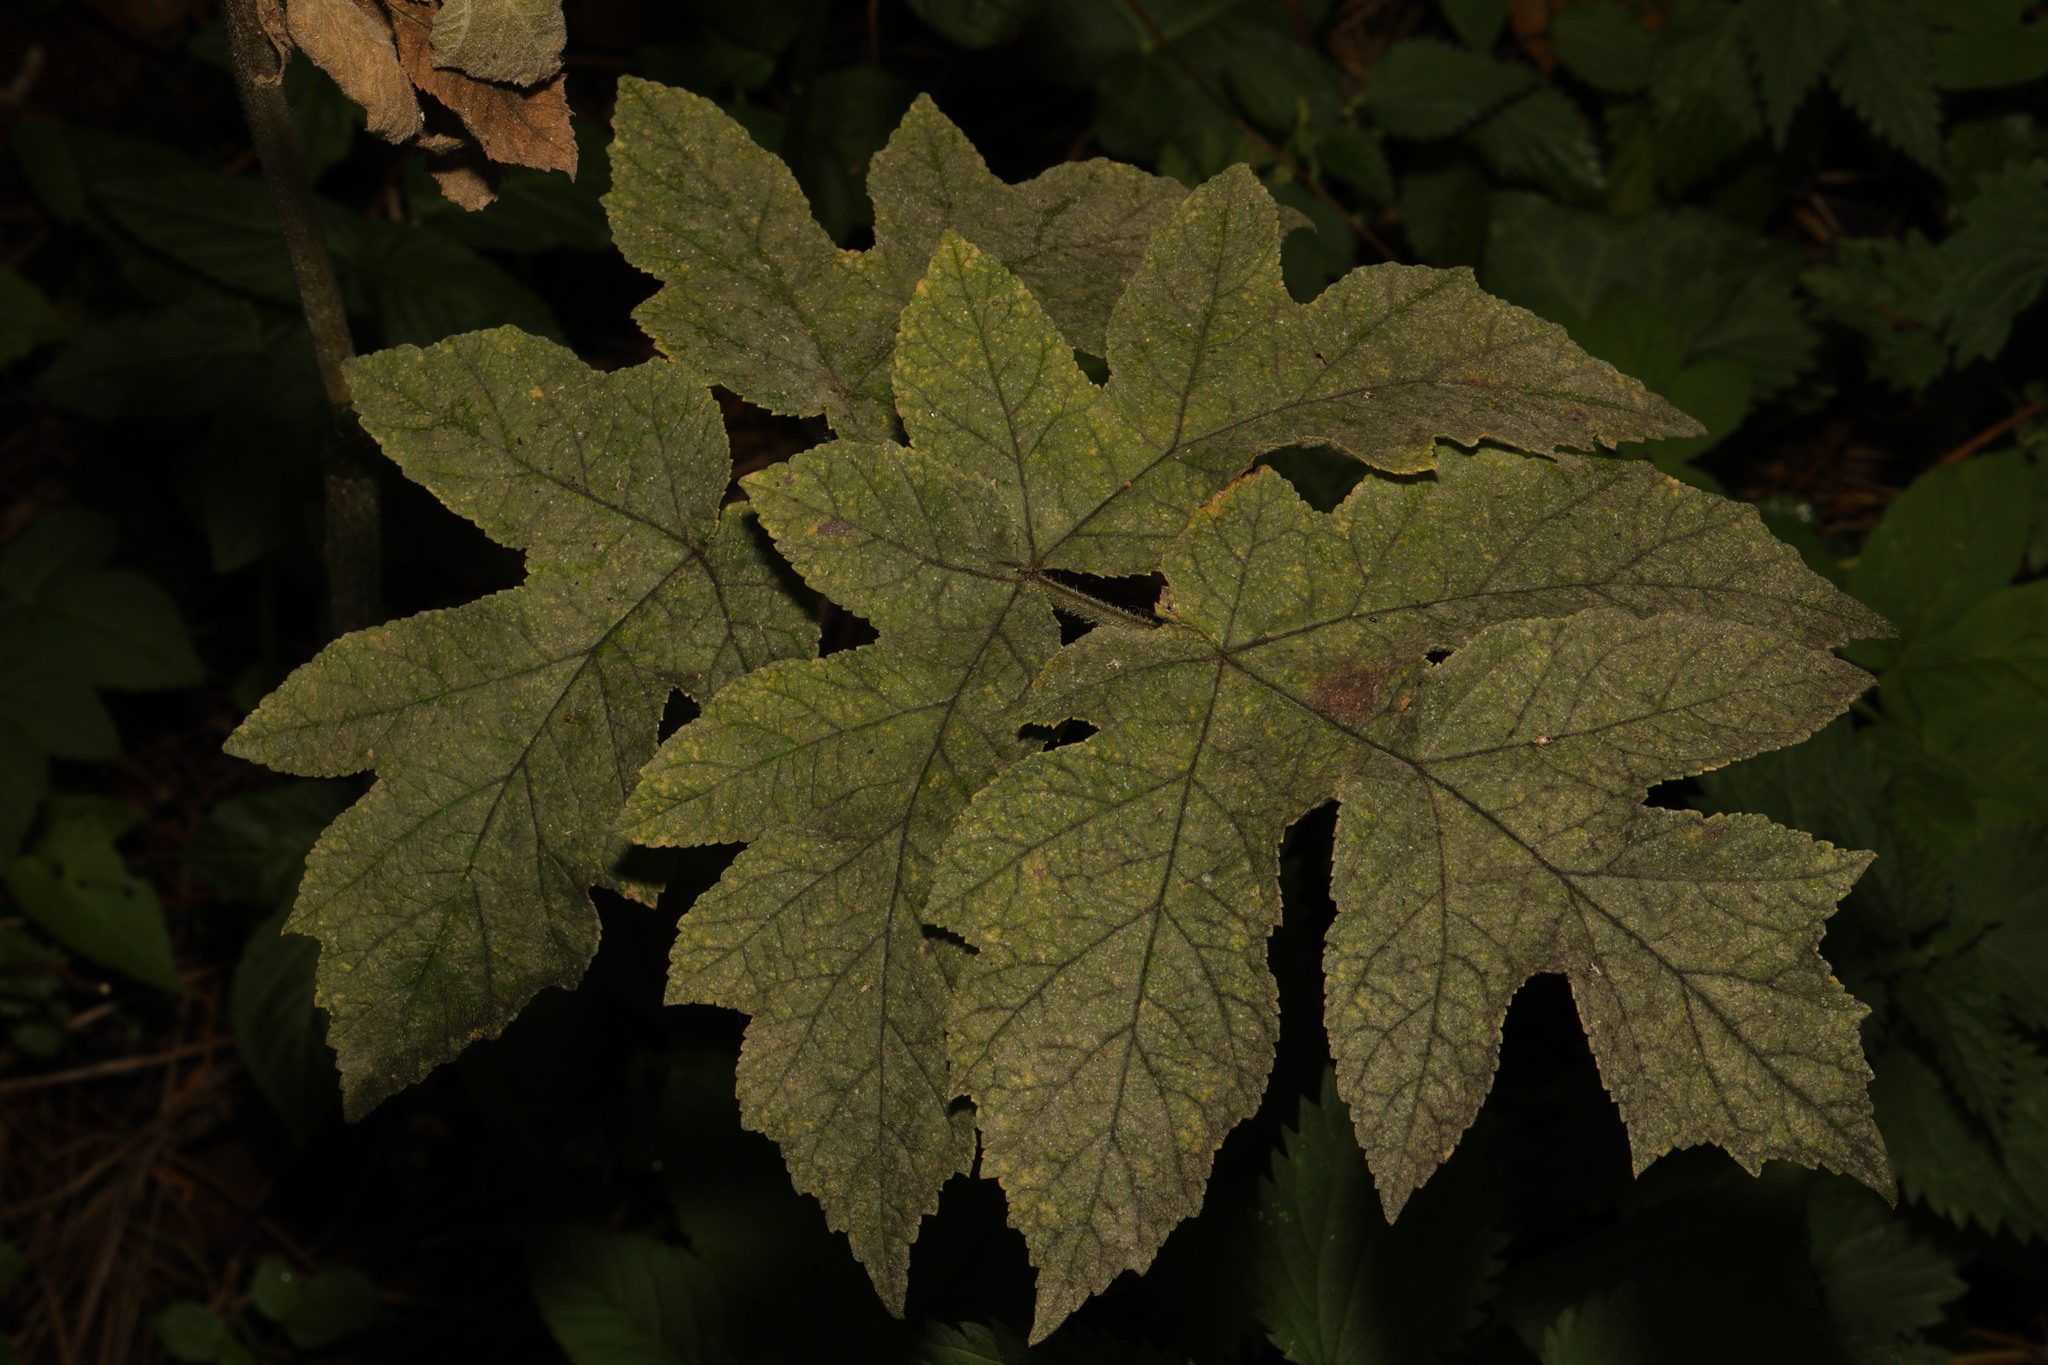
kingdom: Plantae
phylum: Tracheophyta
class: Magnoliopsida
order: Apiales
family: Apiaceae
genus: Heracleum
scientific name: Heracleum sphondylium
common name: Hogweed
